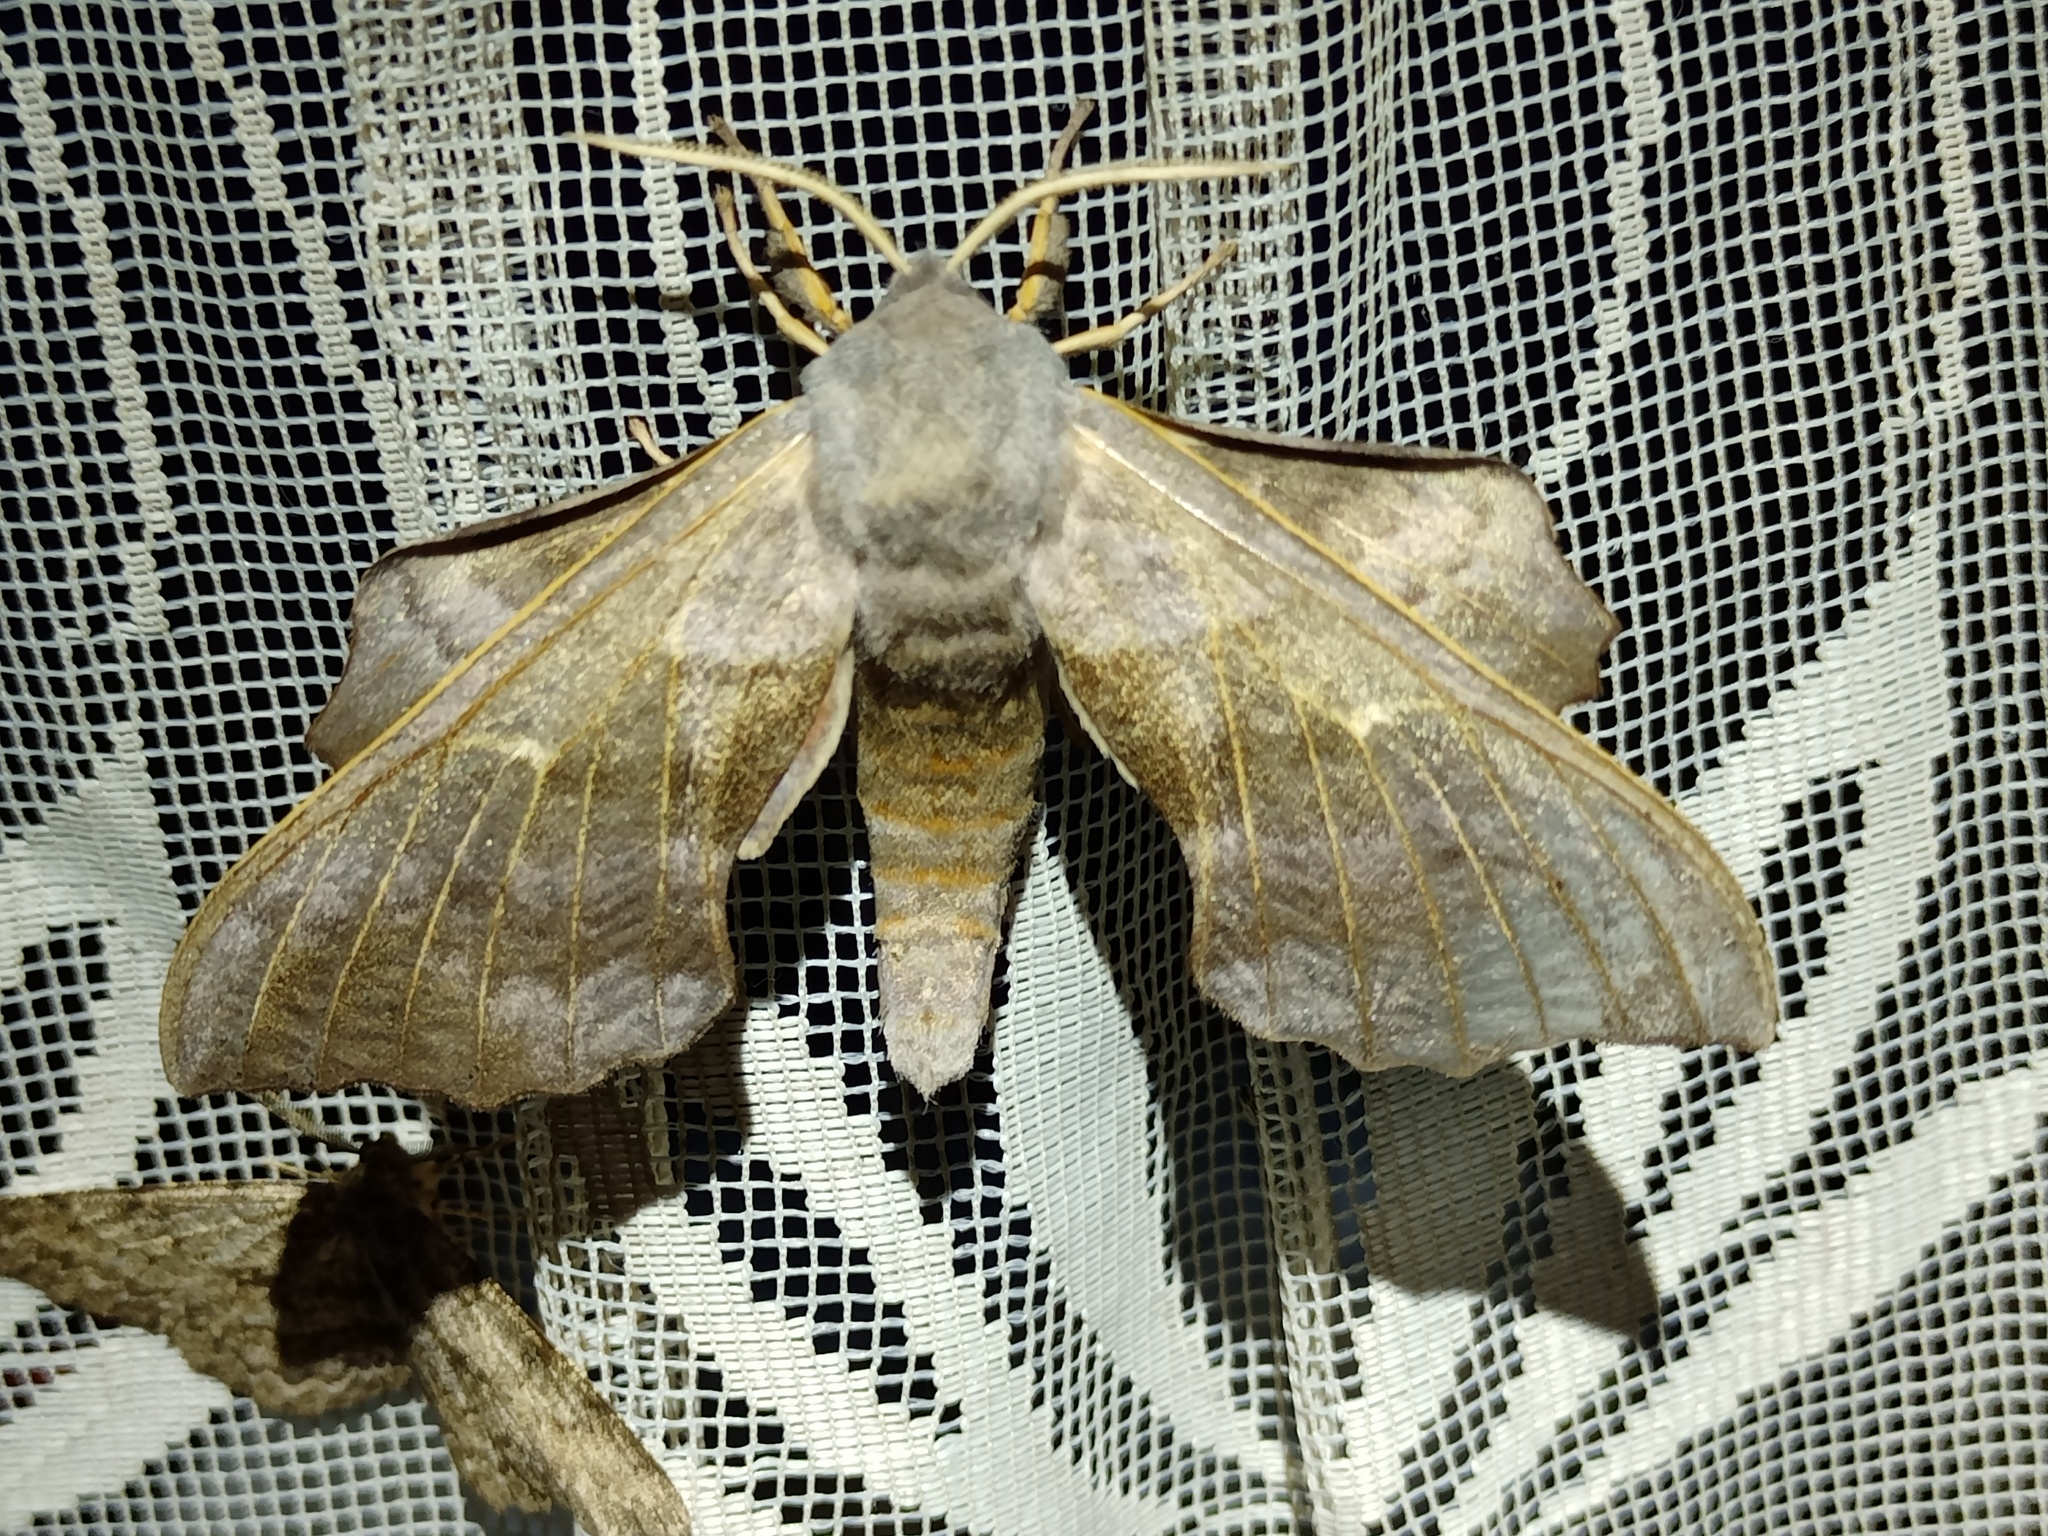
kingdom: Animalia
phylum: Arthropoda
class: Insecta
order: Lepidoptera
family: Sphingidae
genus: Laothoe
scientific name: Laothoe populi
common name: Poplar hawk-moth
